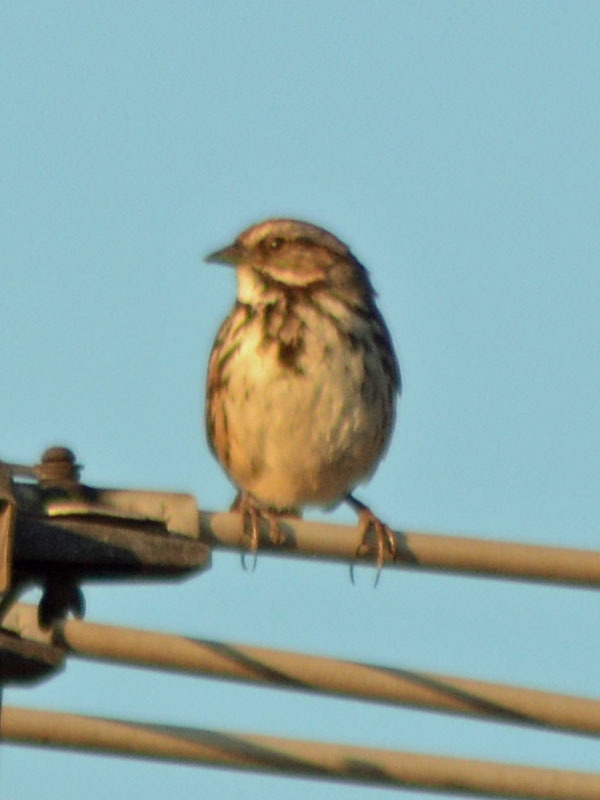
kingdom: Animalia
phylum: Chordata
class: Aves
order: Passeriformes
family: Passerellidae
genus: Melospiza
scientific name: Melospiza melodia
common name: Song sparrow
